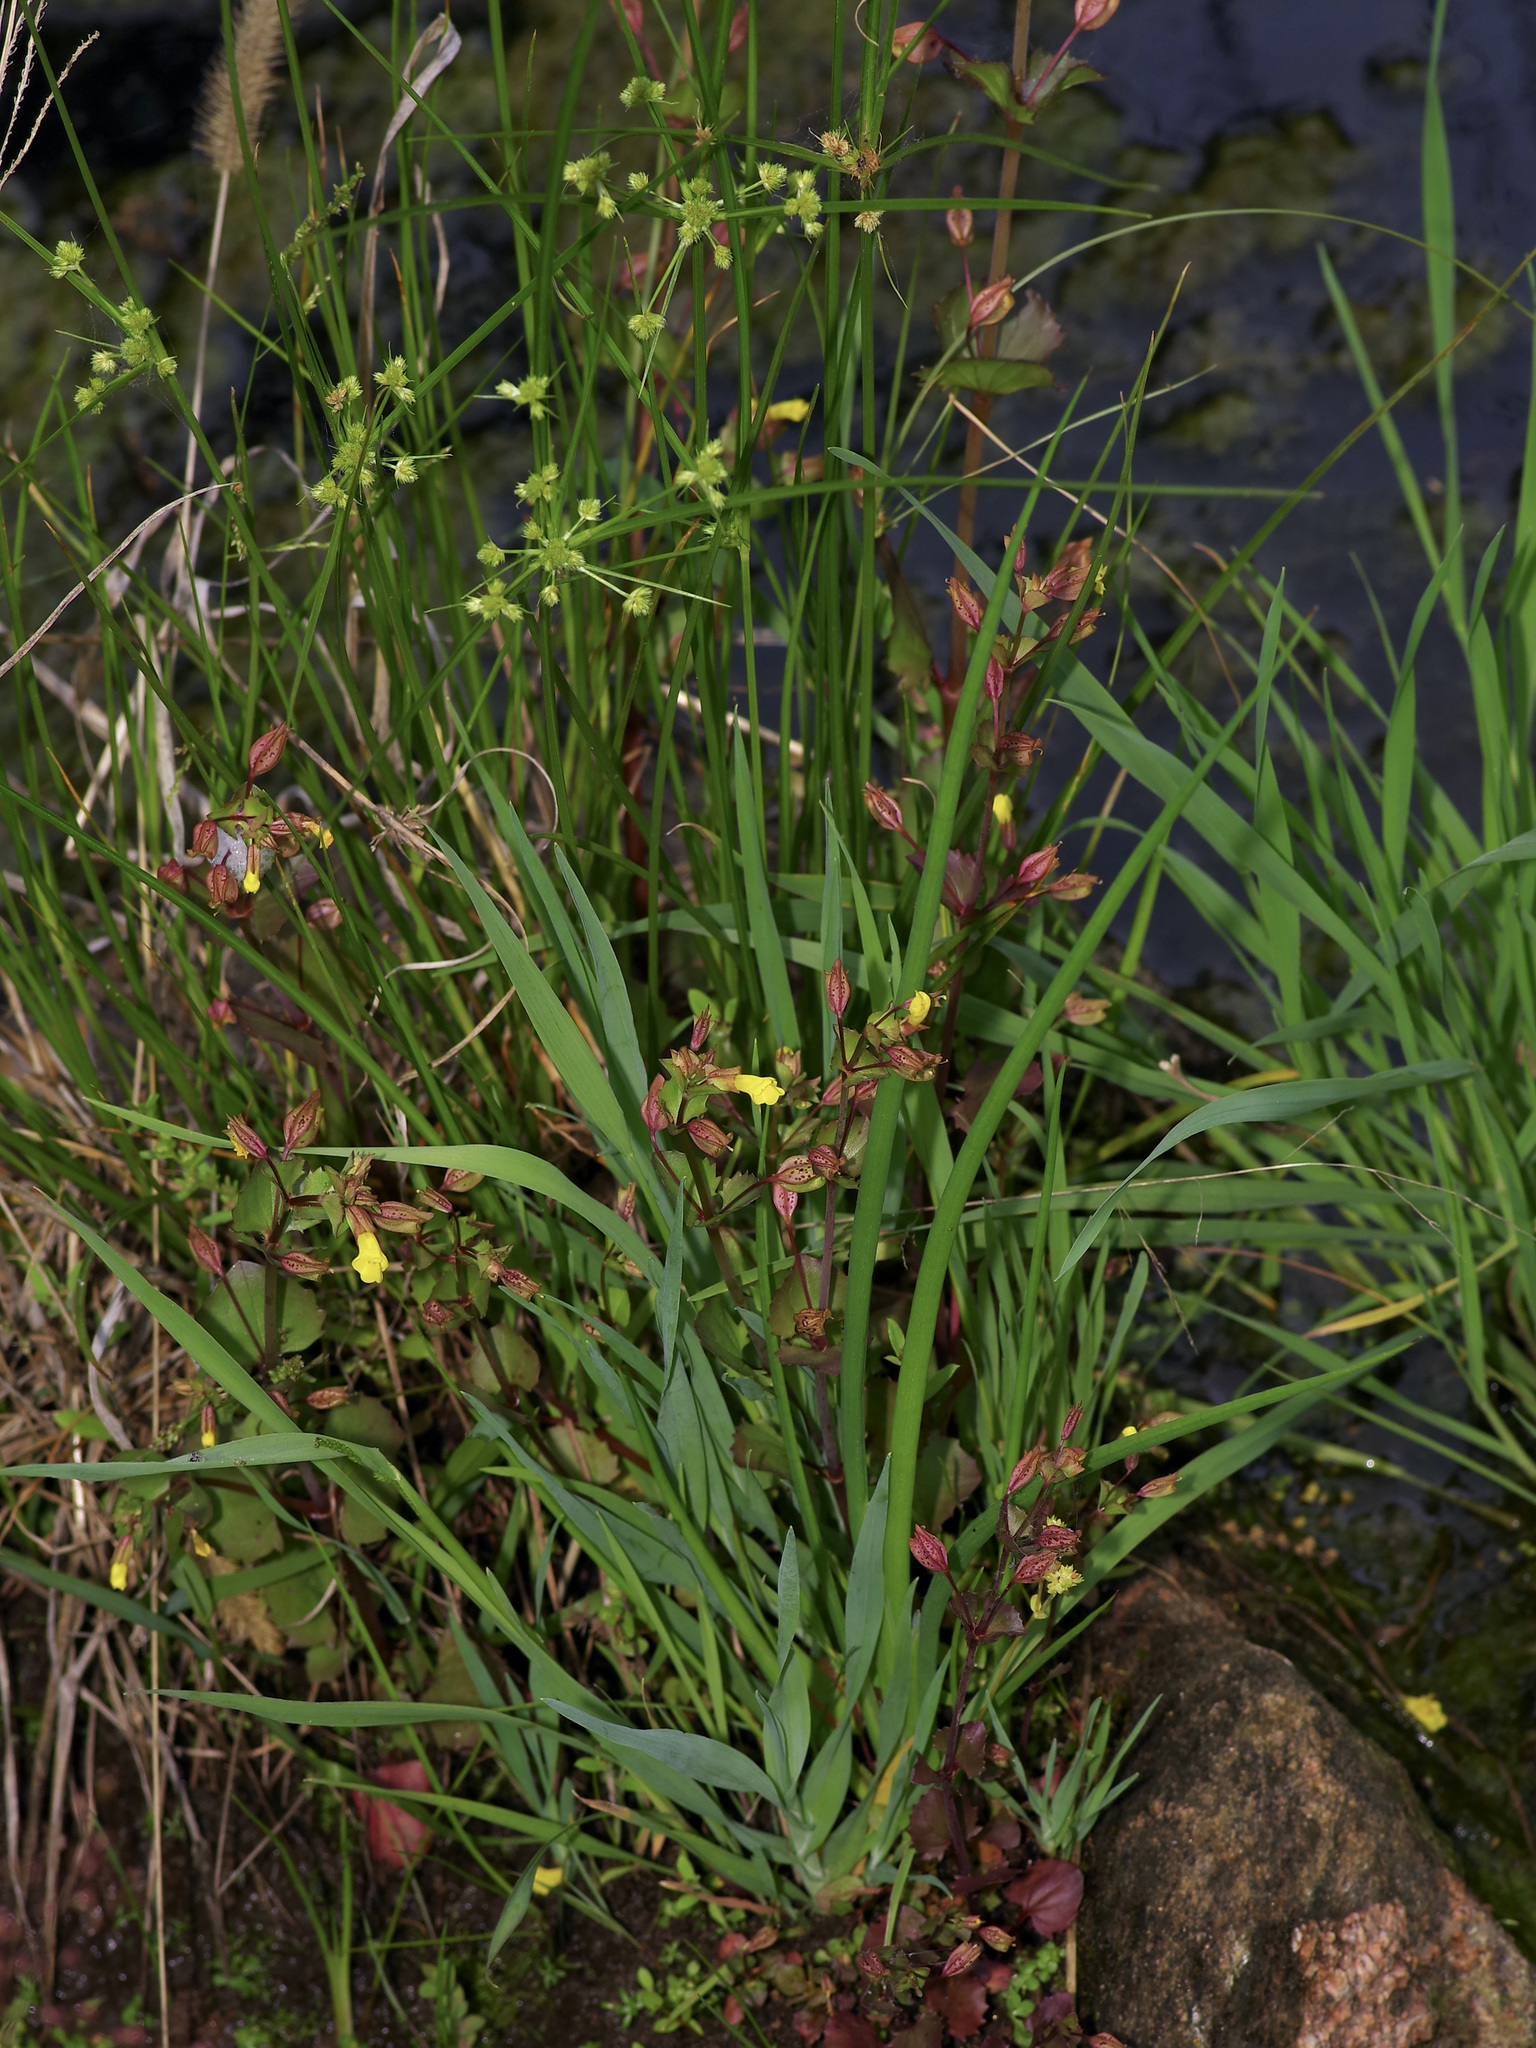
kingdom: Plantae
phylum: Tracheophyta
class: Magnoliopsida
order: Lamiales
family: Phrymaceae
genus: Erythranthe
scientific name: Erythranthe inamoena
